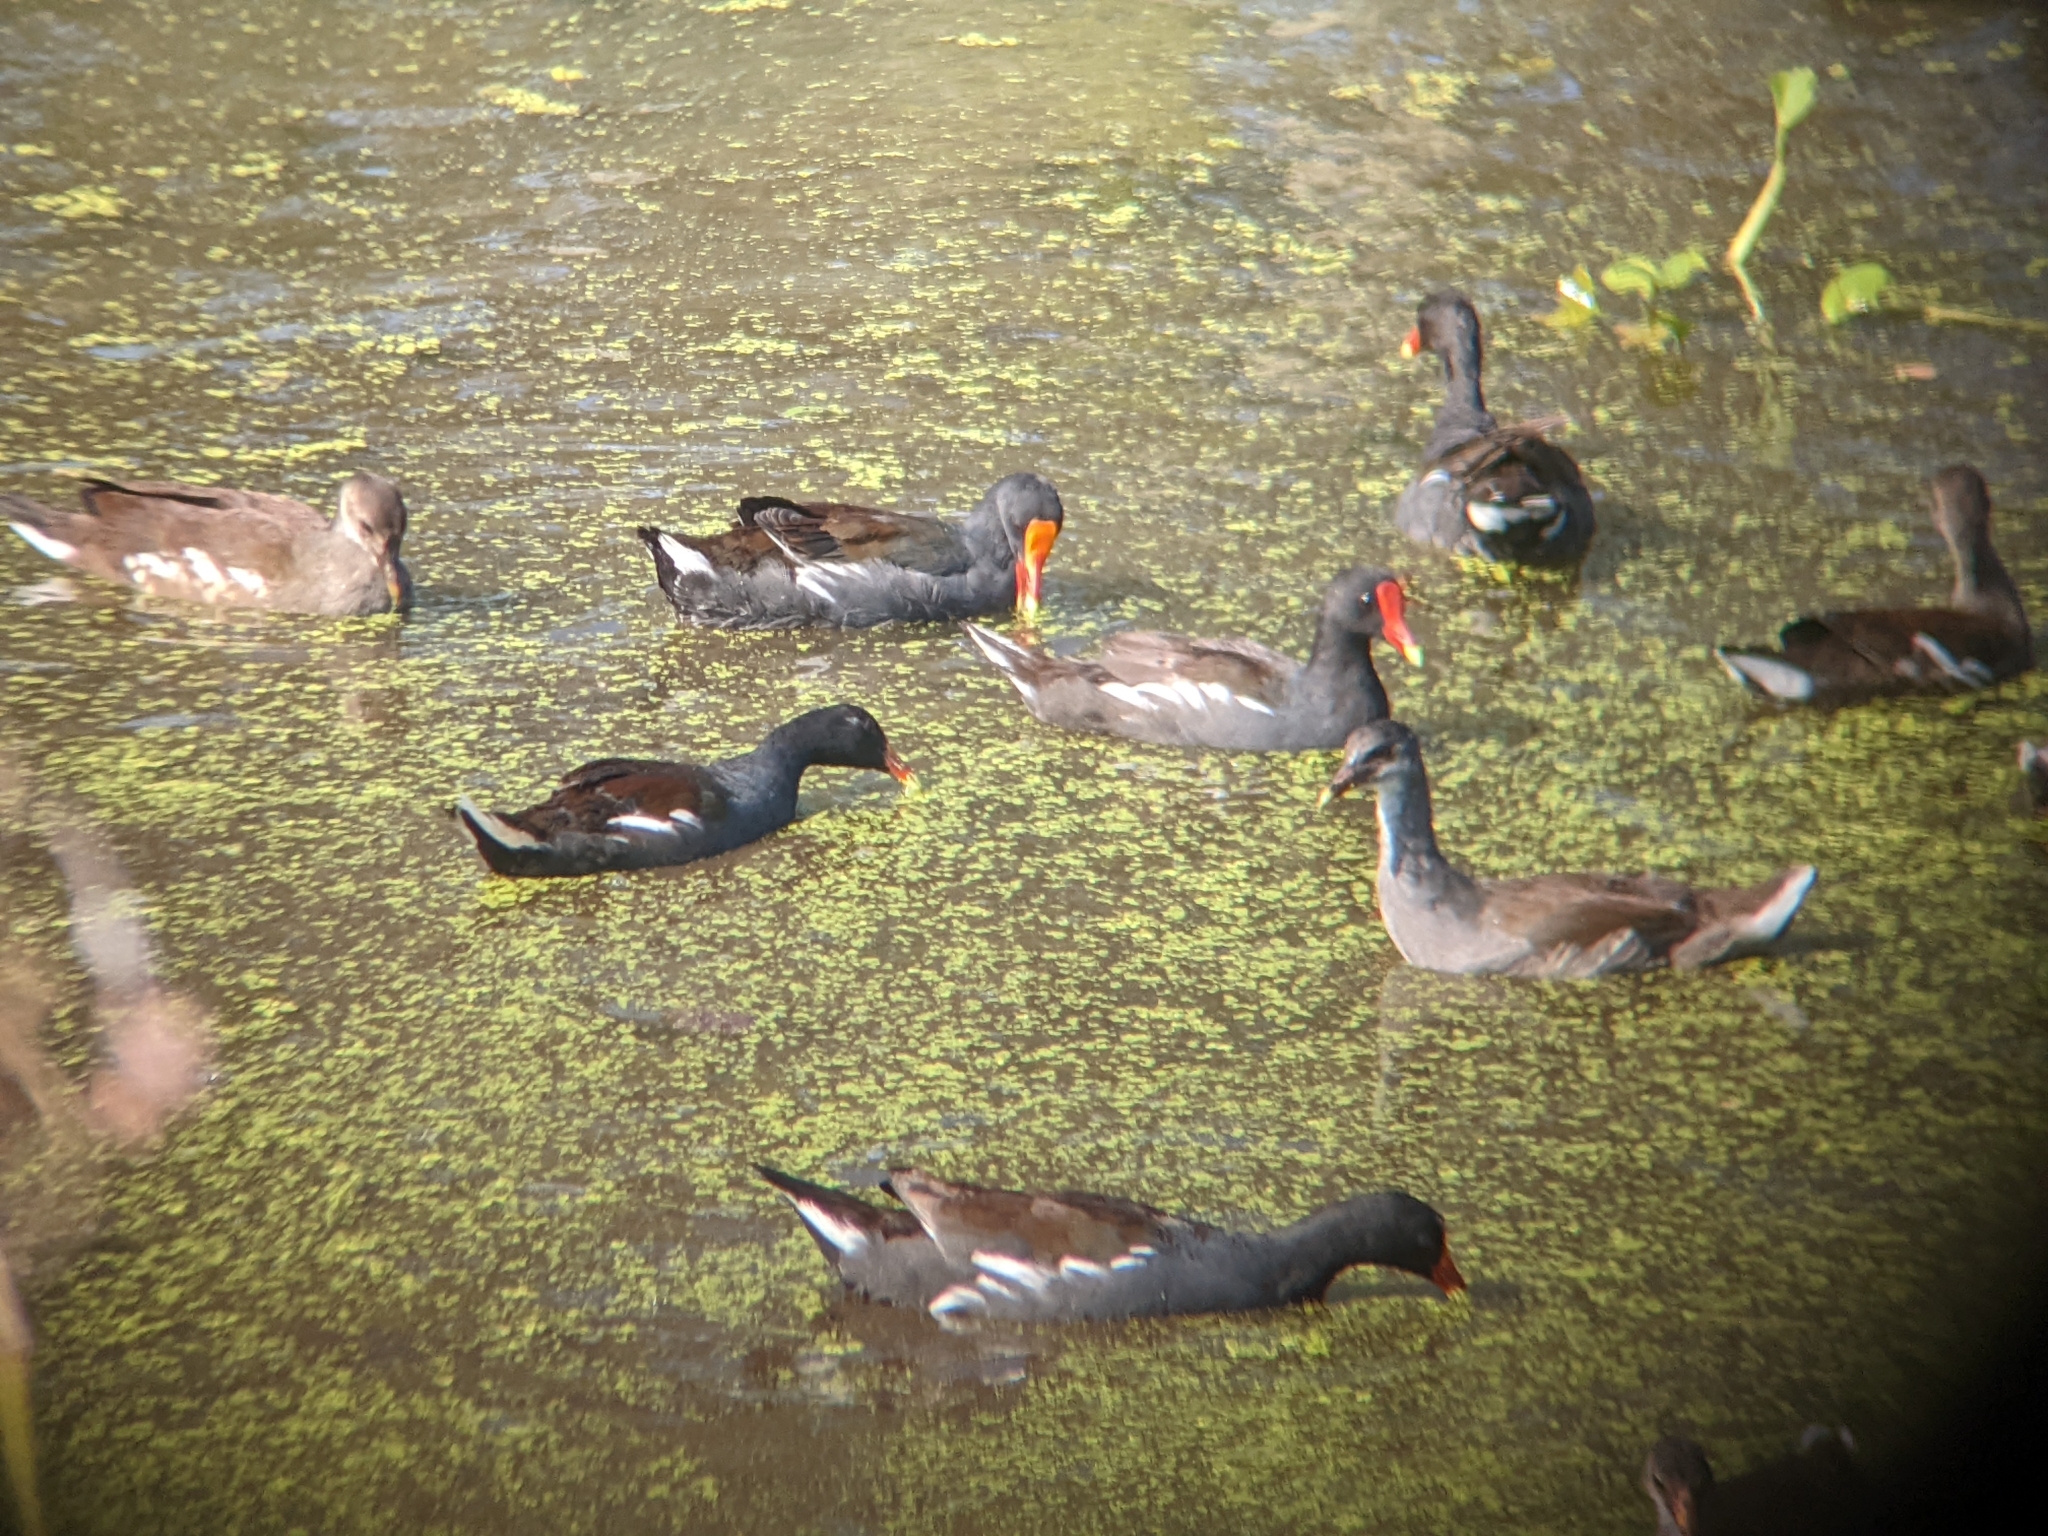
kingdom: Animalia
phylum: Chordata
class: Aves
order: Gruiformes
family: Rallidae
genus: Gallinula
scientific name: Gallinula chloropus
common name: Common moorhen
